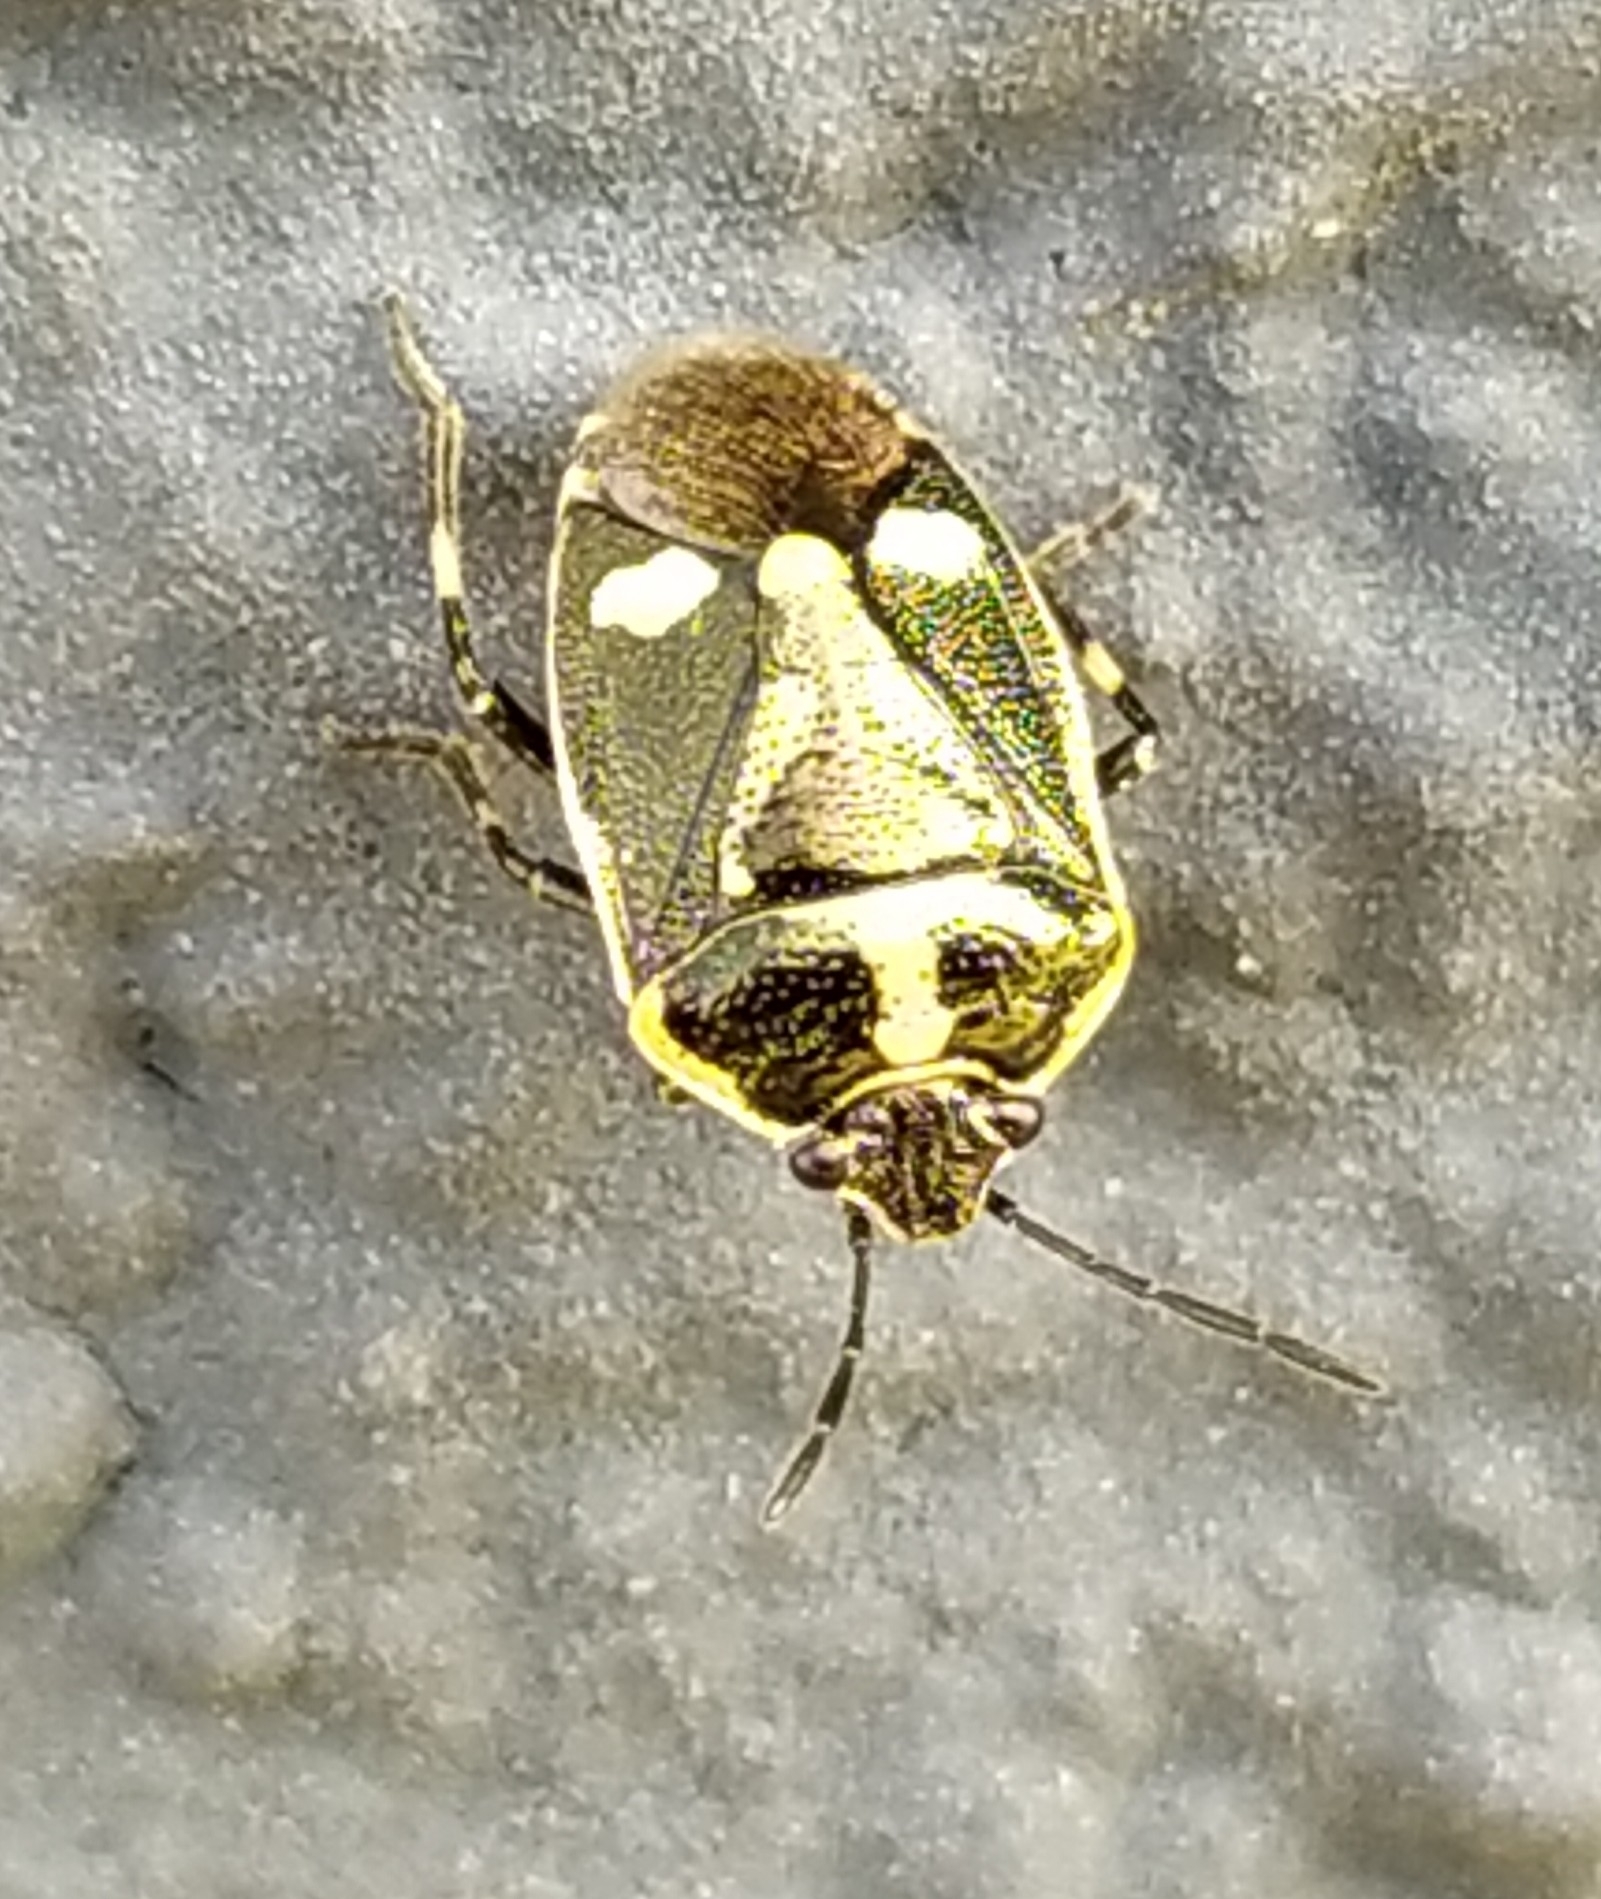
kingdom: Animalia
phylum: Arthropoda
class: Insecta
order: Hemiptera
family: Pentatomidae
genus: Eurydema
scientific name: Eurydema oleracea
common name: Cabbage bug
